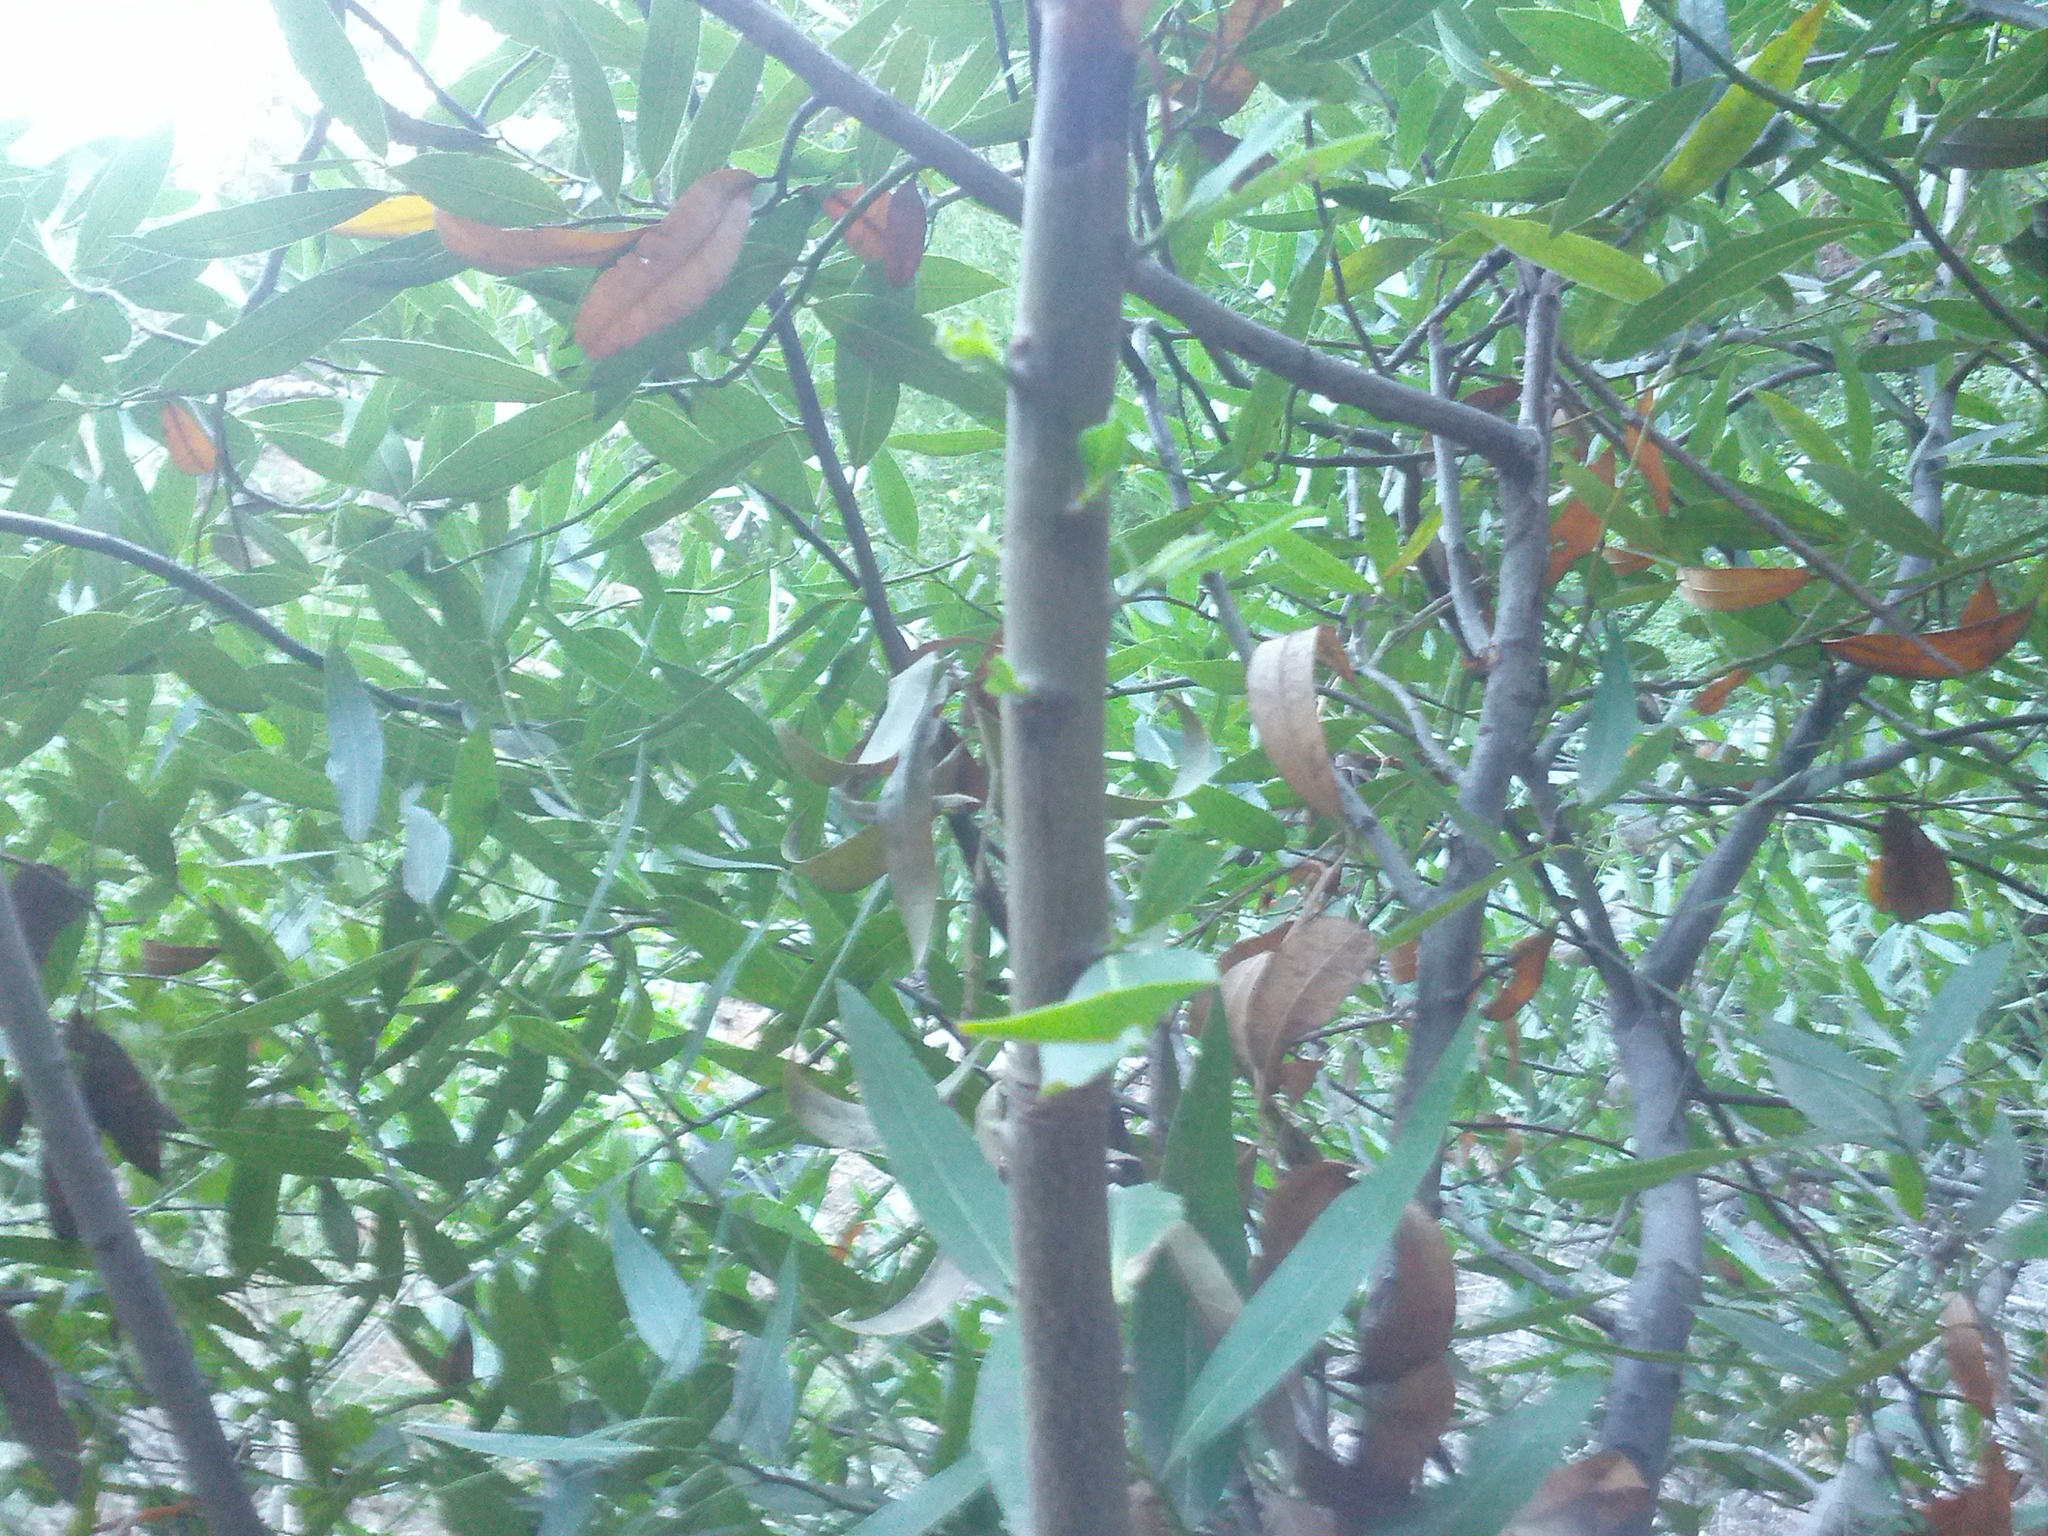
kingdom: Plantae
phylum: Tracheophyta
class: Magnoliopsida
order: Laurales
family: Lauraceae
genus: Umbellularia
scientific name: Umbellularia californica
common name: California bay
